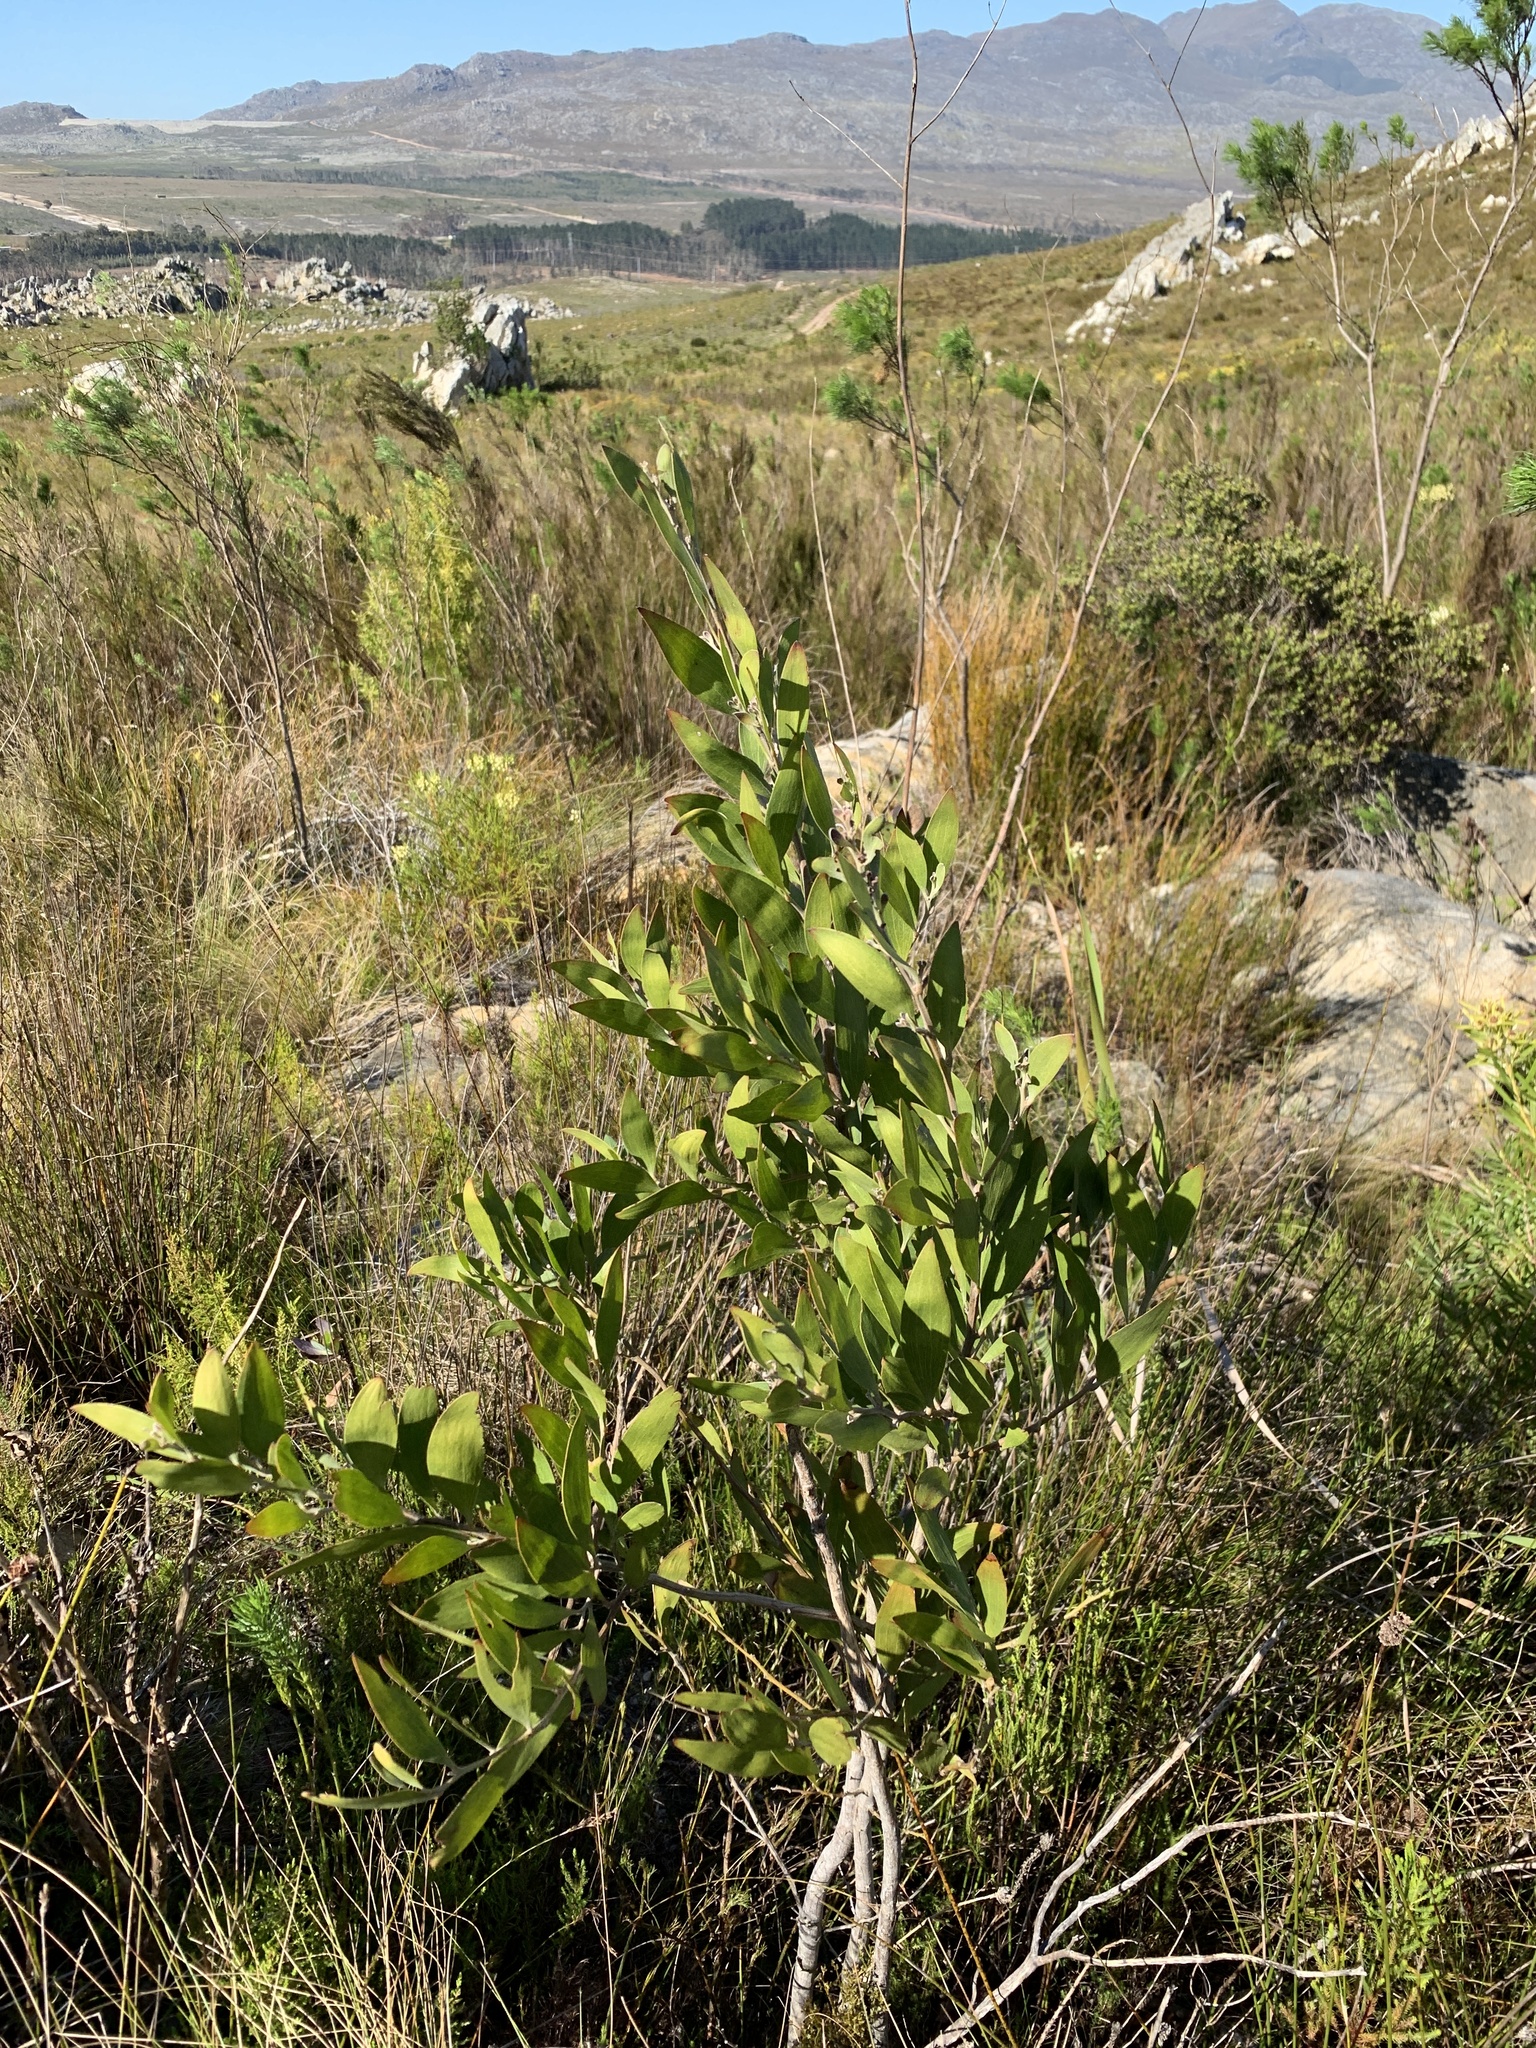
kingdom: Plantae
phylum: Tracheophyta
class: Magnoliopsida
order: Fabales
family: Fabaceae
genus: Acacia
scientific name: Acacia melanoxylon
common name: Blackwood
